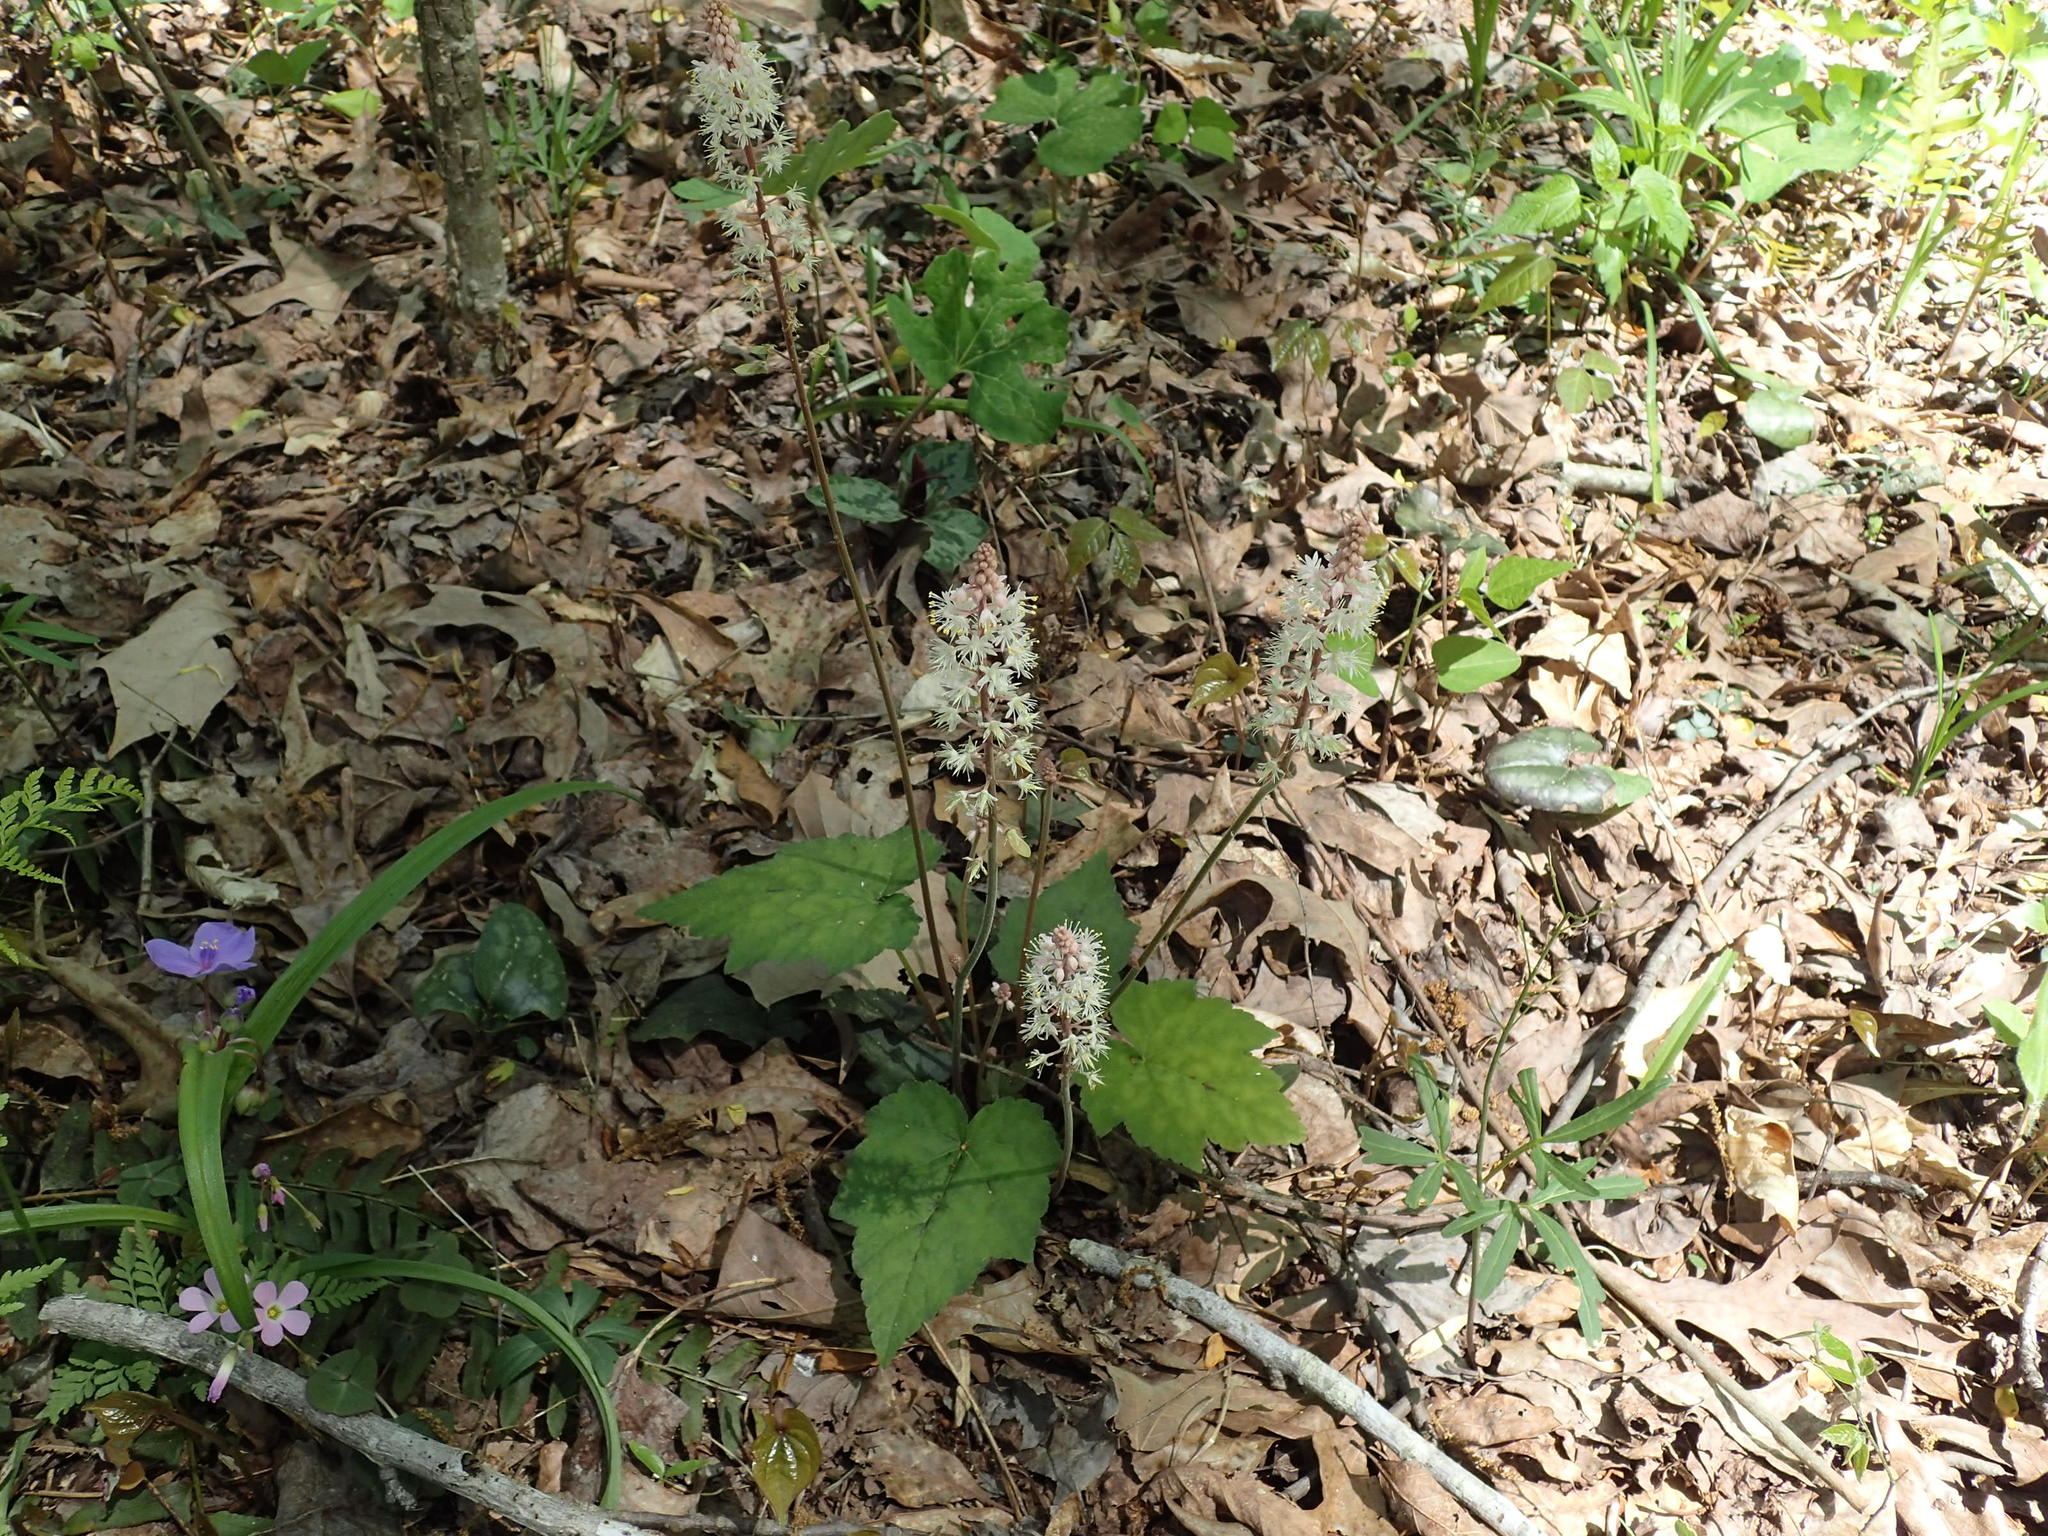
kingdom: Plantae
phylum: Tracheophyta
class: Magnoliopsida
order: Saxifragales
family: Saxifragaceae
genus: Tiarella
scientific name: Tiarella wherryi
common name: Tufted foamflower
